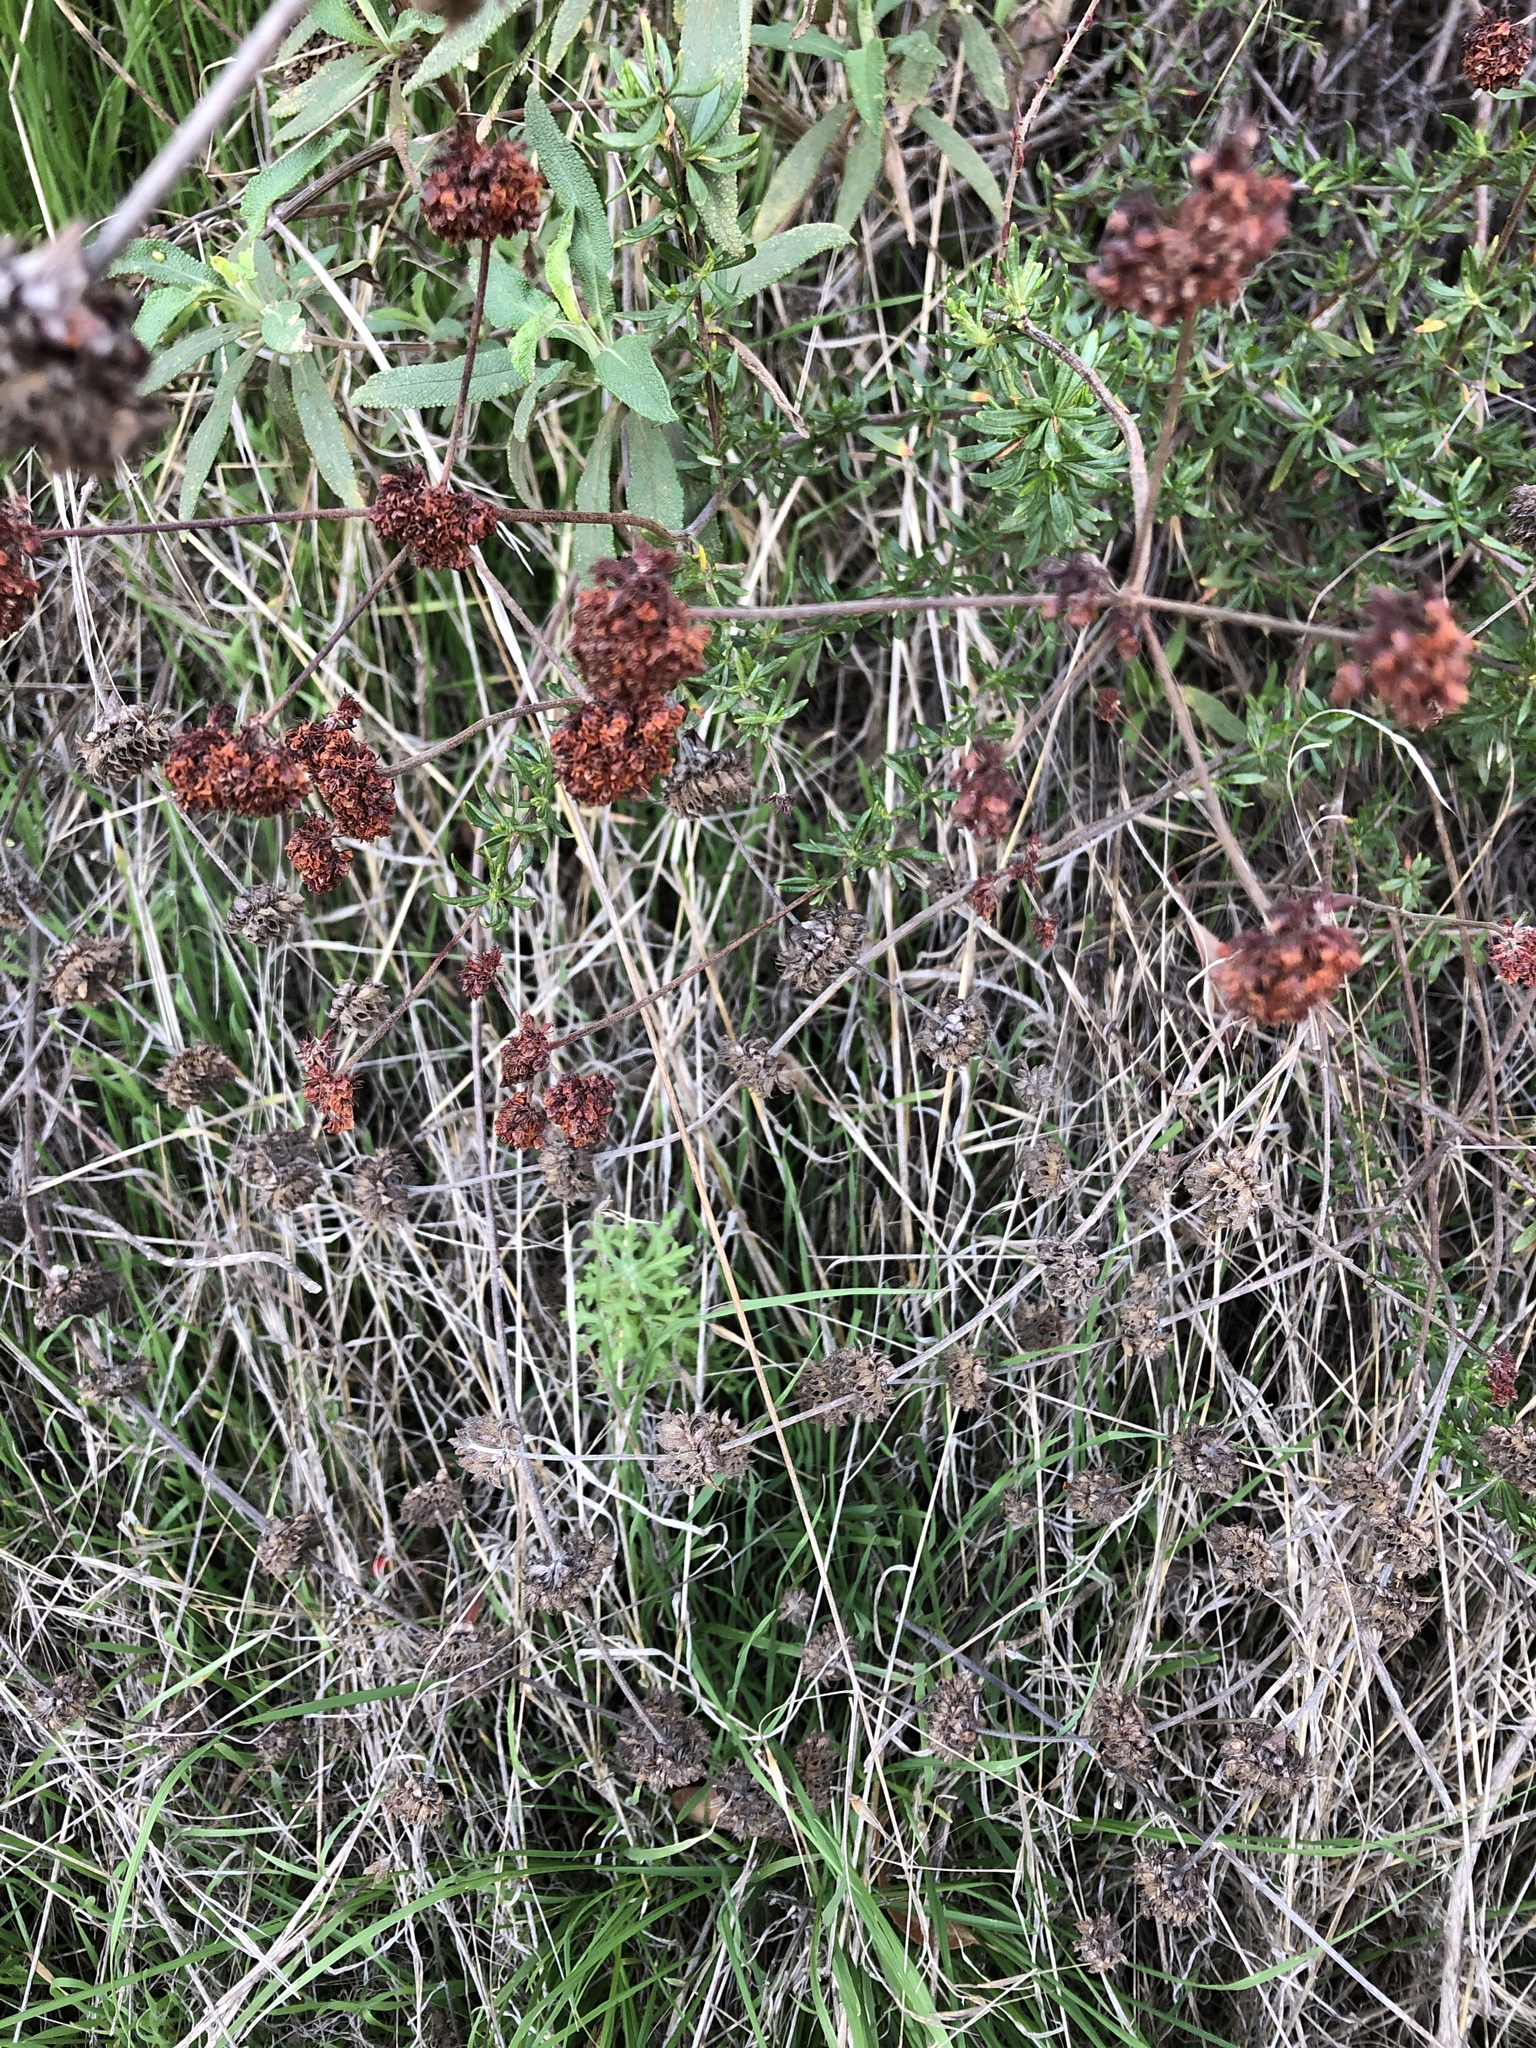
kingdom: Plantae
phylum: Tracheophyta
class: Magnoliopsida
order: Caryophyllales
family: Polygonaceae
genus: Eriogonum
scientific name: Eriogonum fasciculatum
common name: California wild buckwheat
